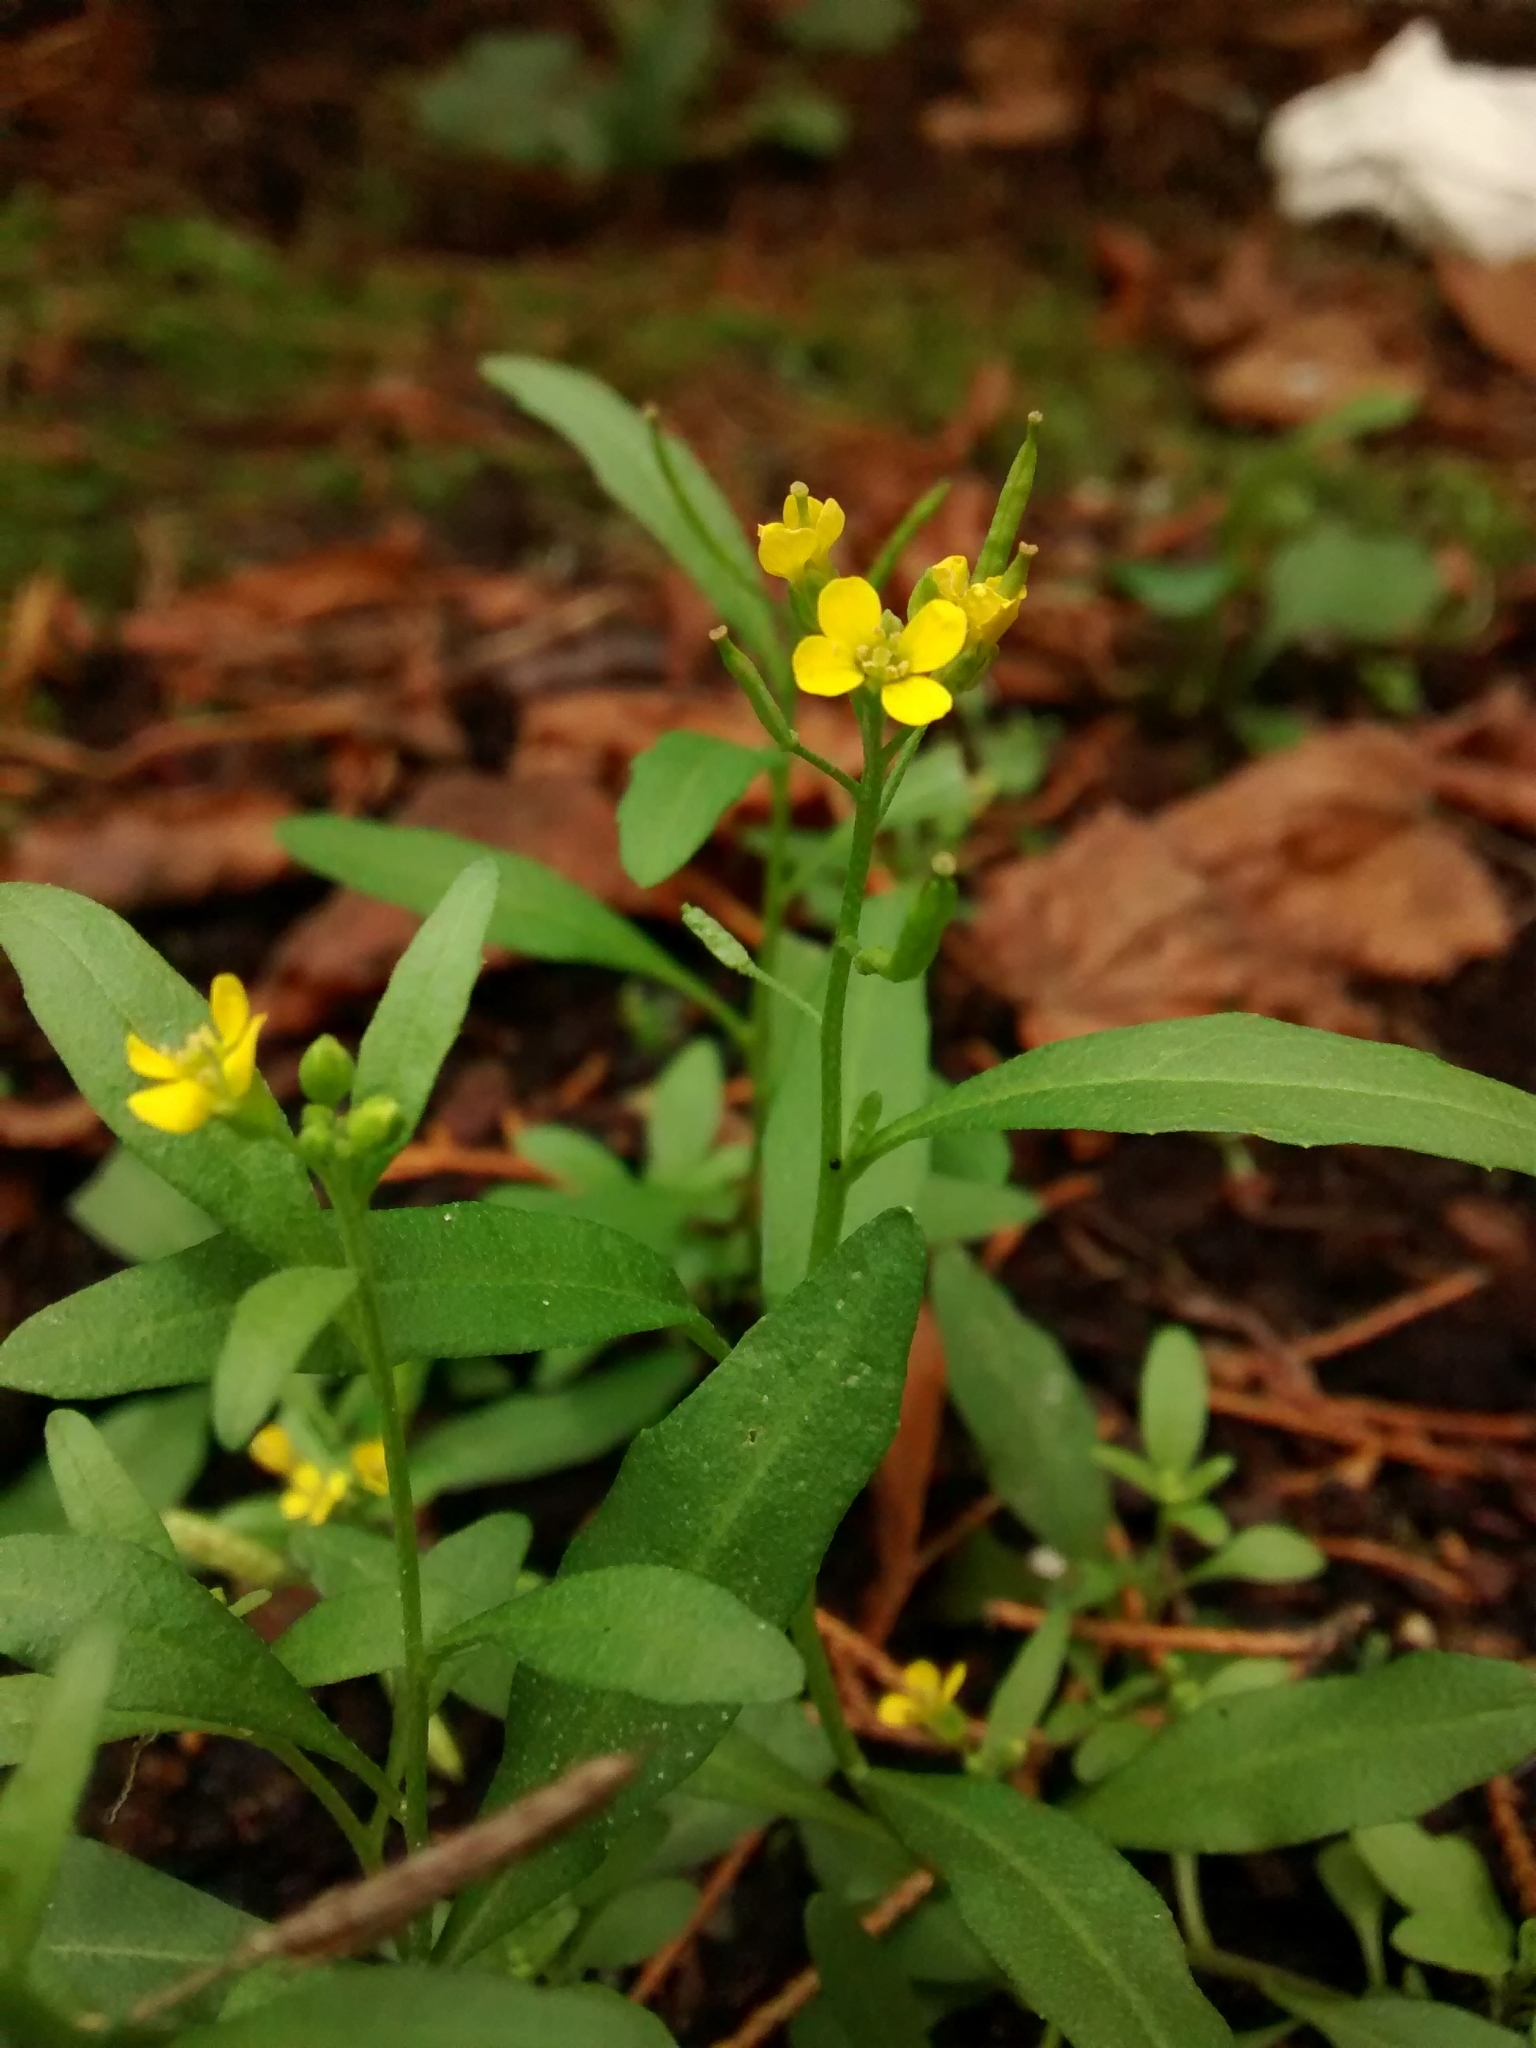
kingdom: Plantae
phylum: Tracheophyta
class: Magnoliopsida
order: Brassicales
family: Brassicaceae
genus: Erysimum
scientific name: Erysimum cheiranthoides
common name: Treacle mustard
